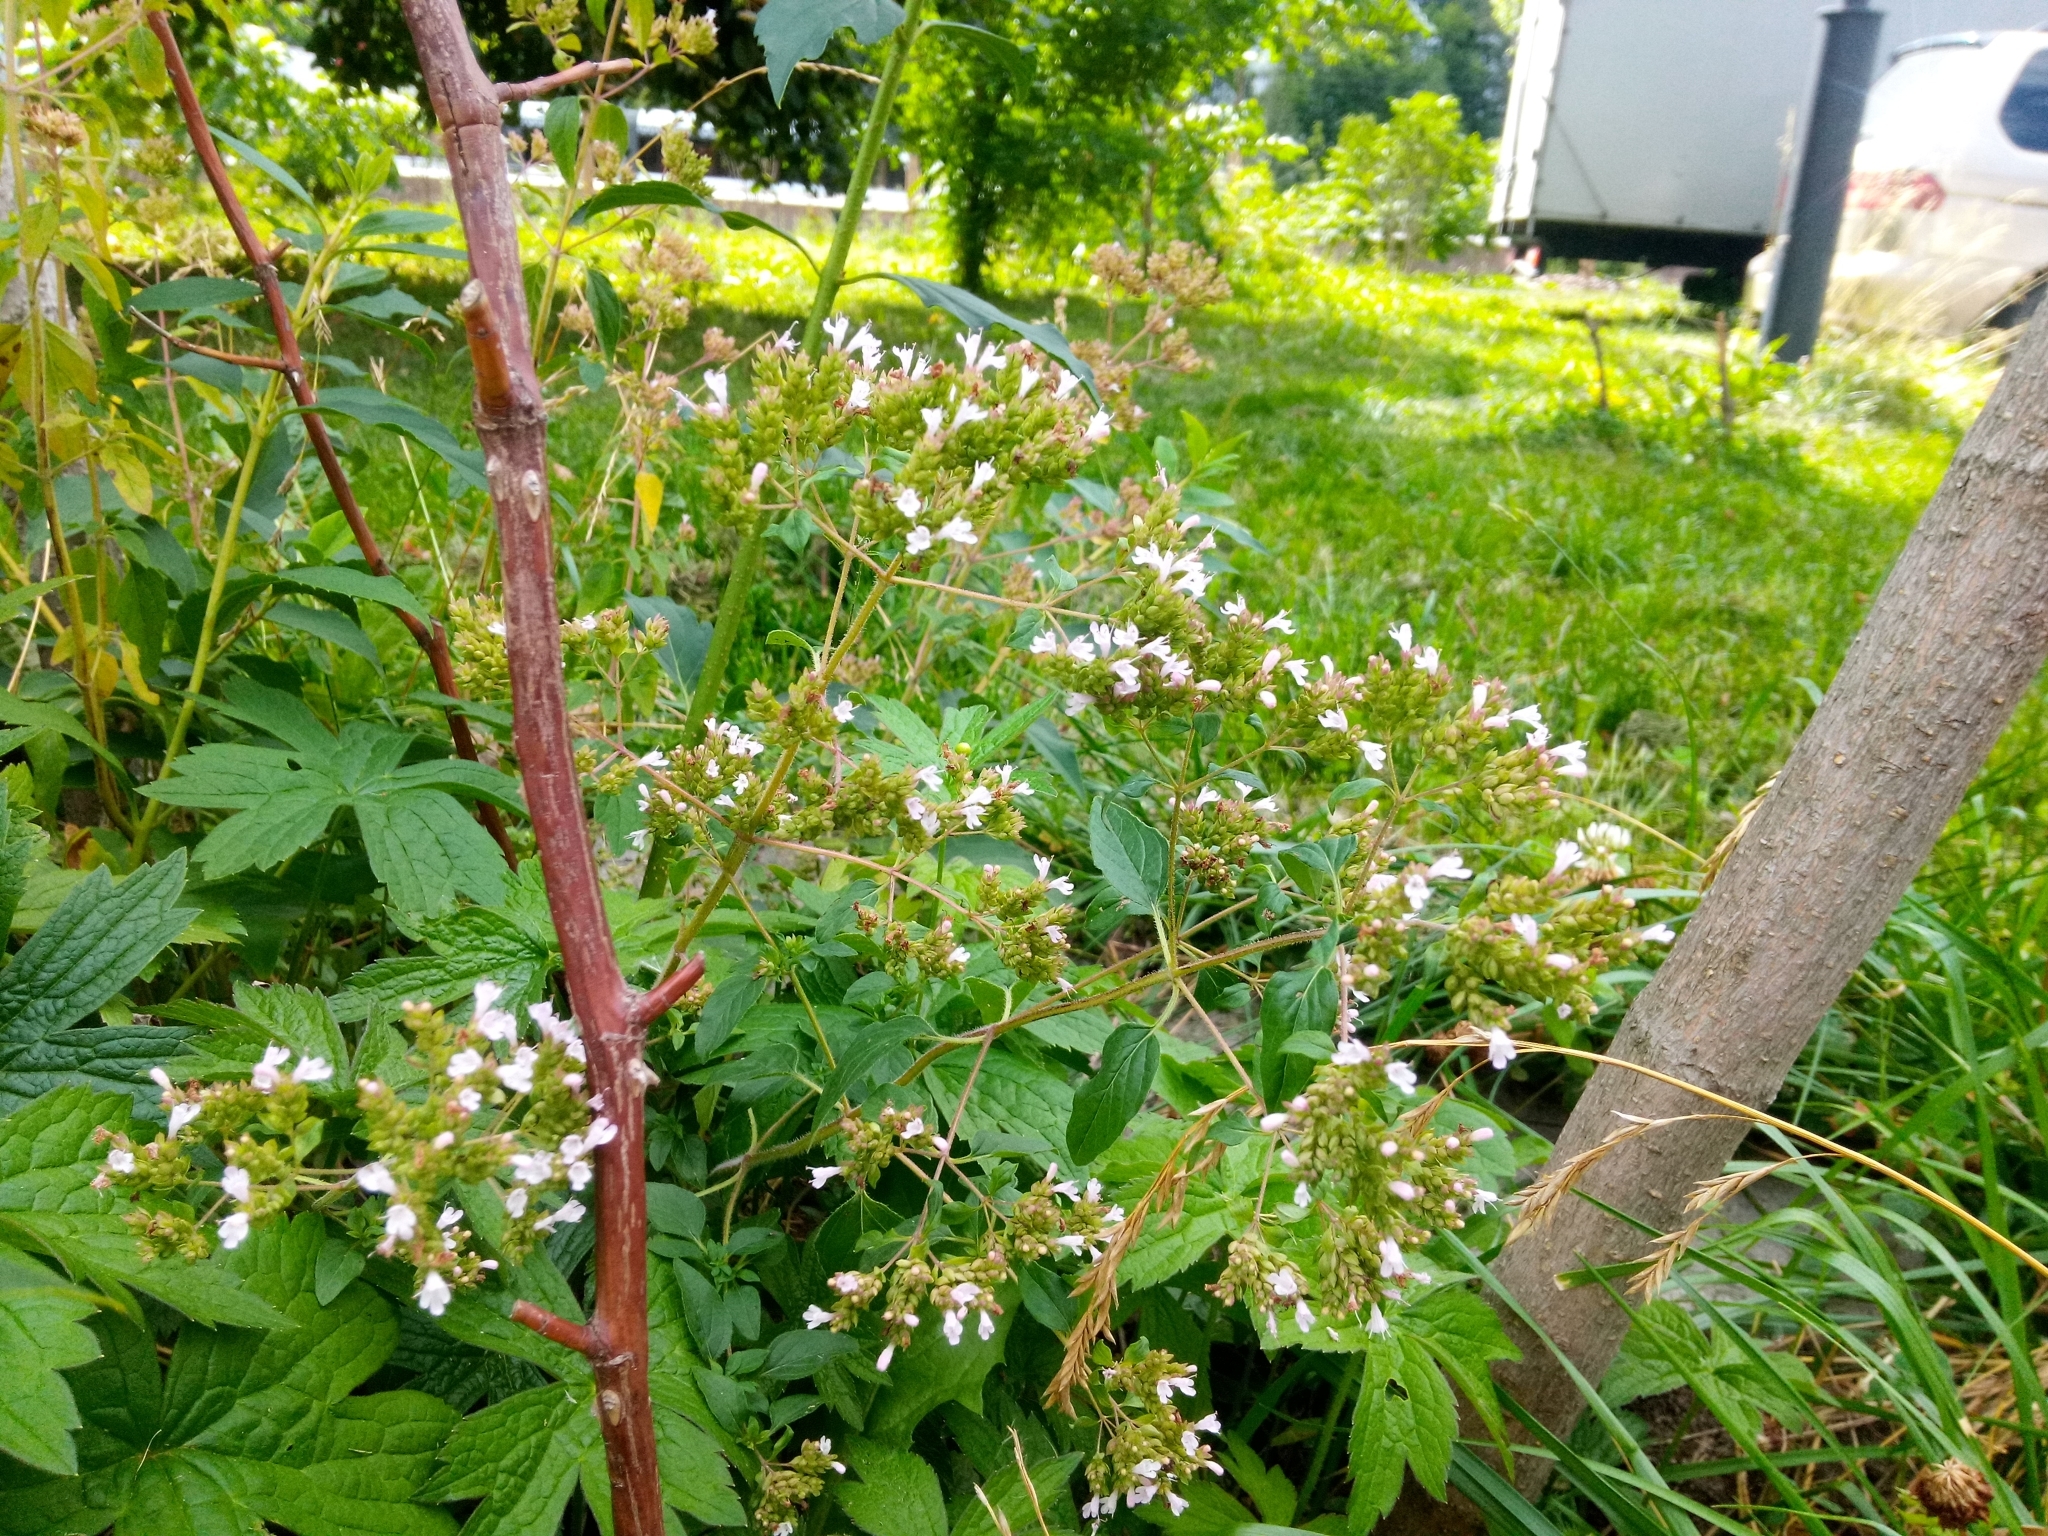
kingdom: Plantae
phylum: Tracheophyta
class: Magnoliopsida
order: Lamiales
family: Lamiaceae
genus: Origanum
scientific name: Origanum vulgare
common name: Wild marjoram
